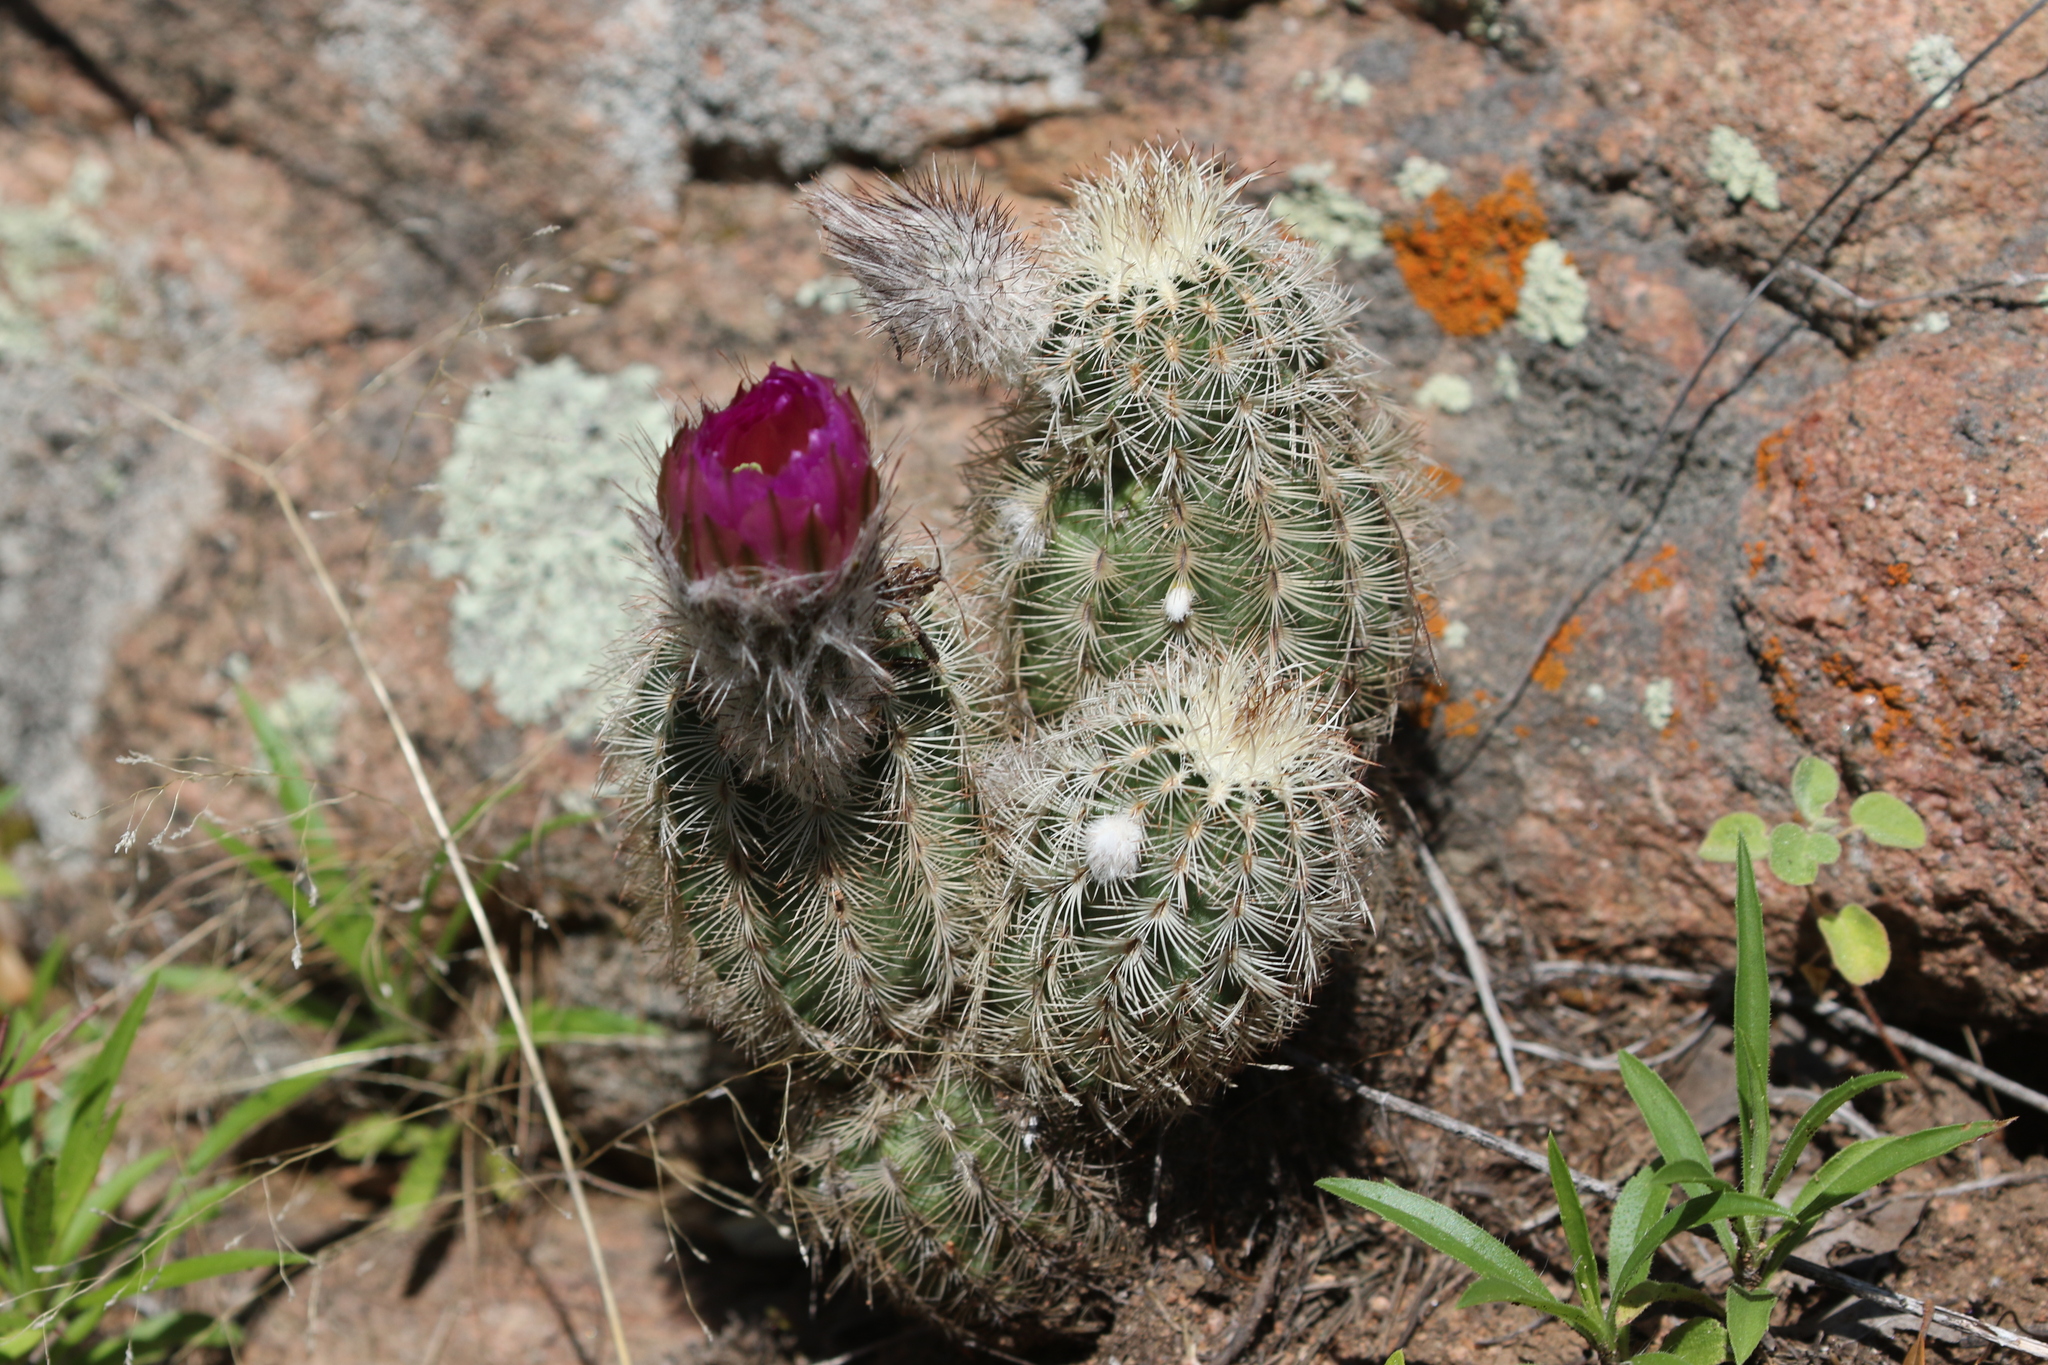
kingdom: Plantae
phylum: Tracheophyta
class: Magnoliopsida
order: Caryophyllales
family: Cactaceae
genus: Echinocereus
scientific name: Echinocereus reichenbachii
